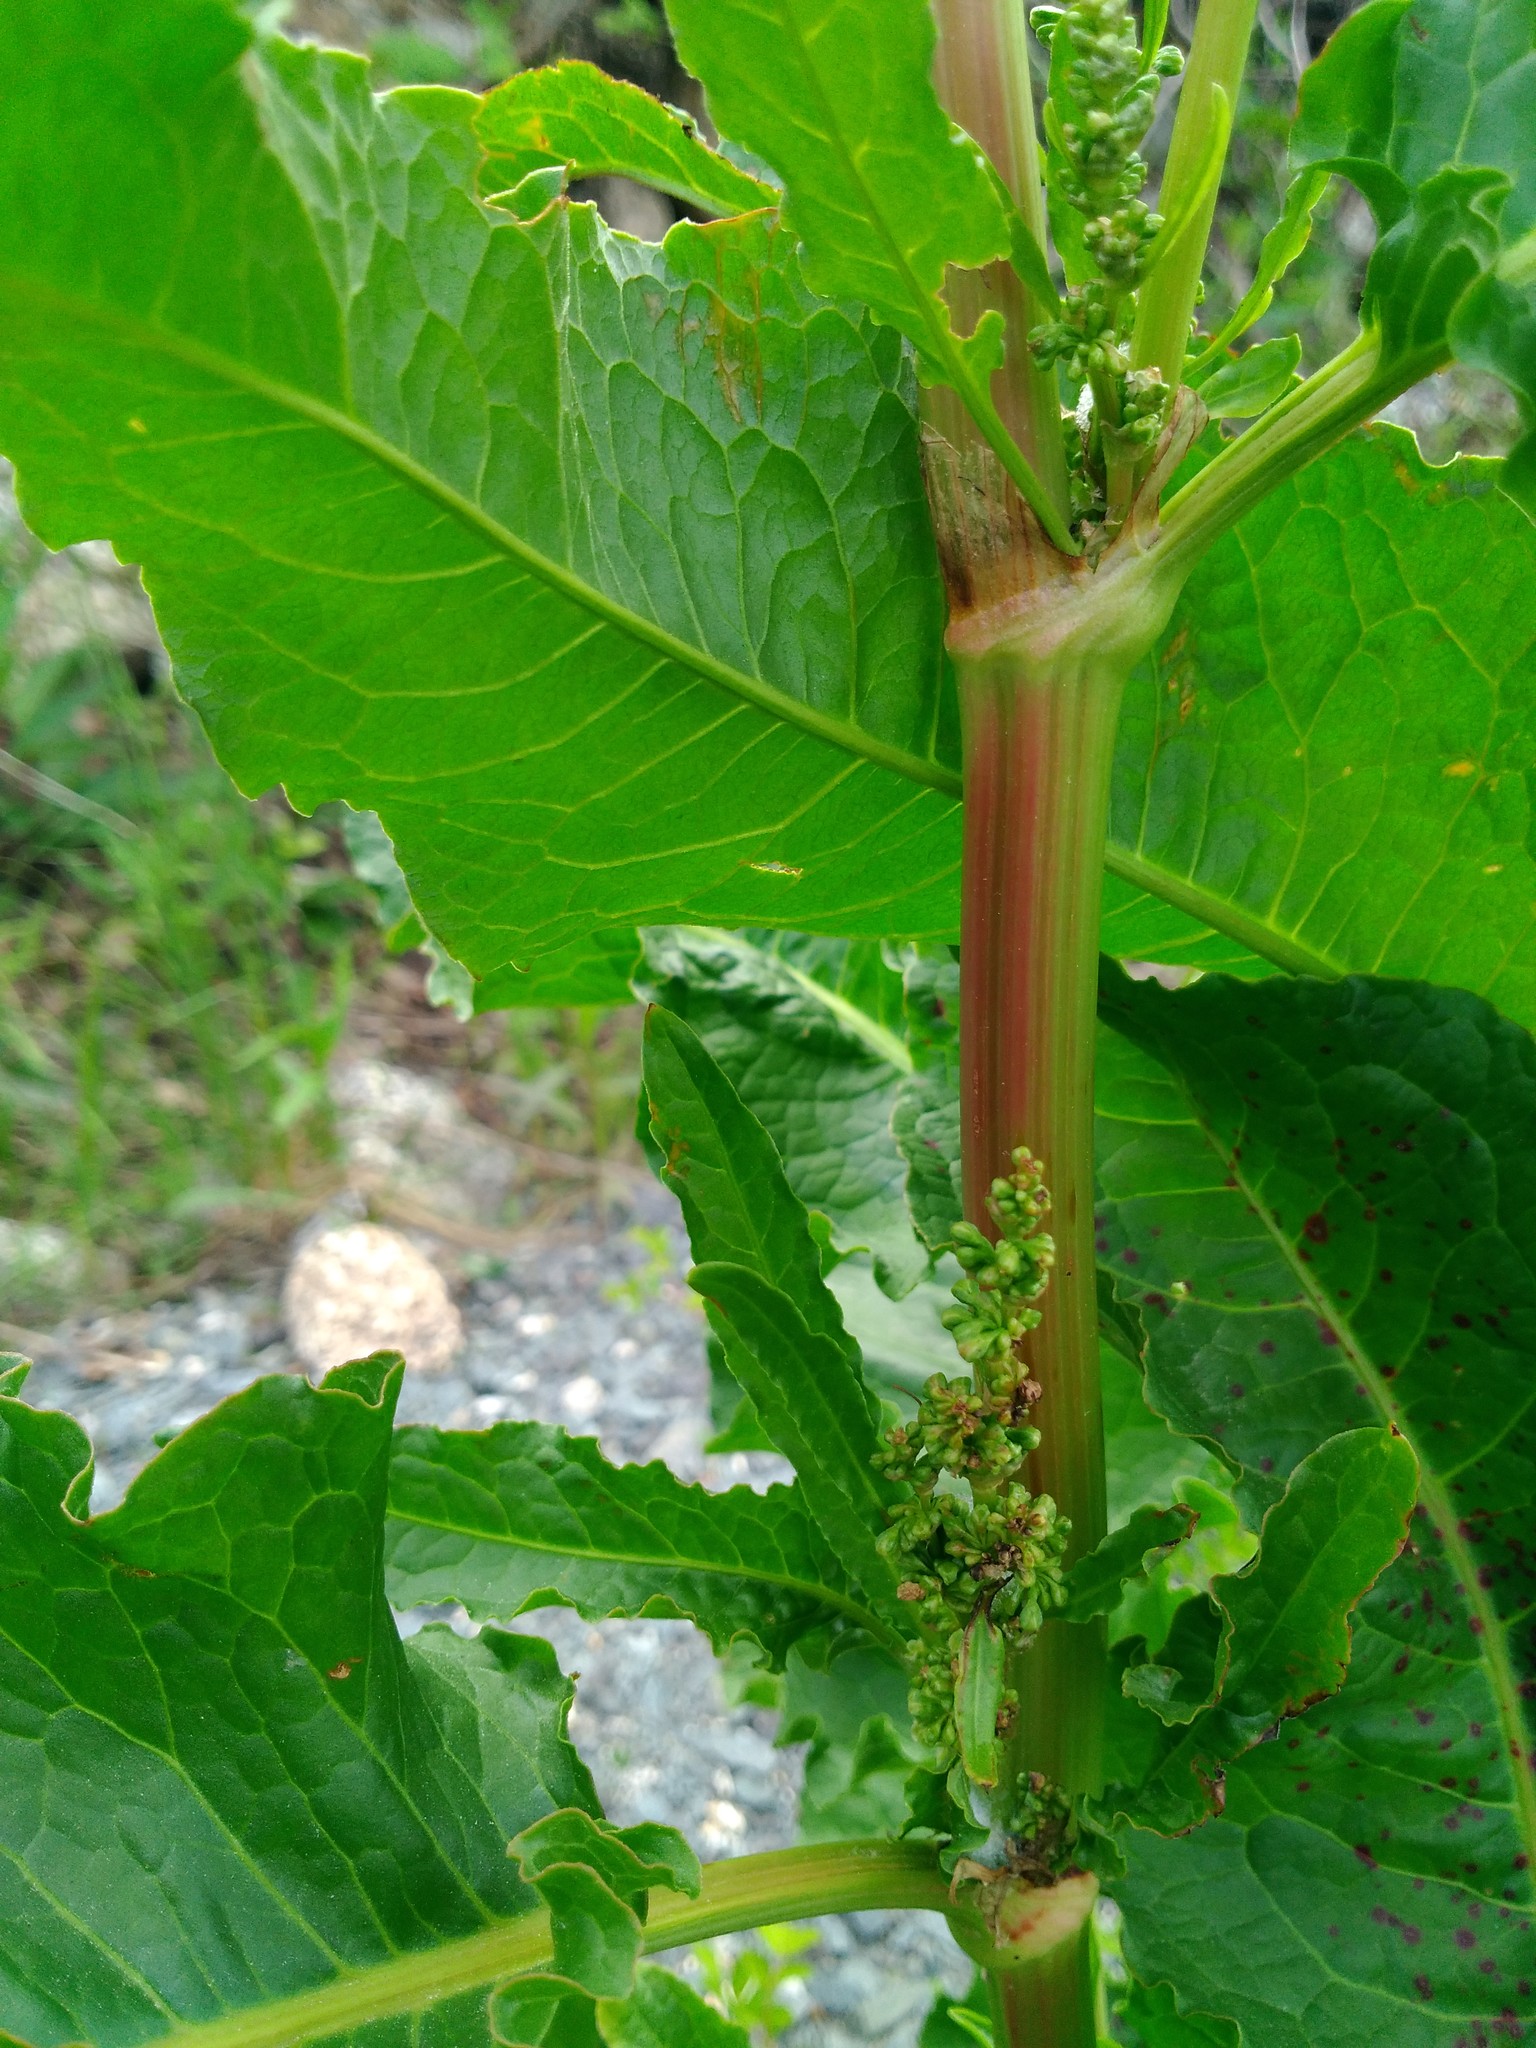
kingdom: Plantae
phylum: Tracheophyta
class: Magnoliopsida
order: Caryophyllales
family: Polygonaceae
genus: Rumex
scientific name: Rumex crispus
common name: Curled dock
